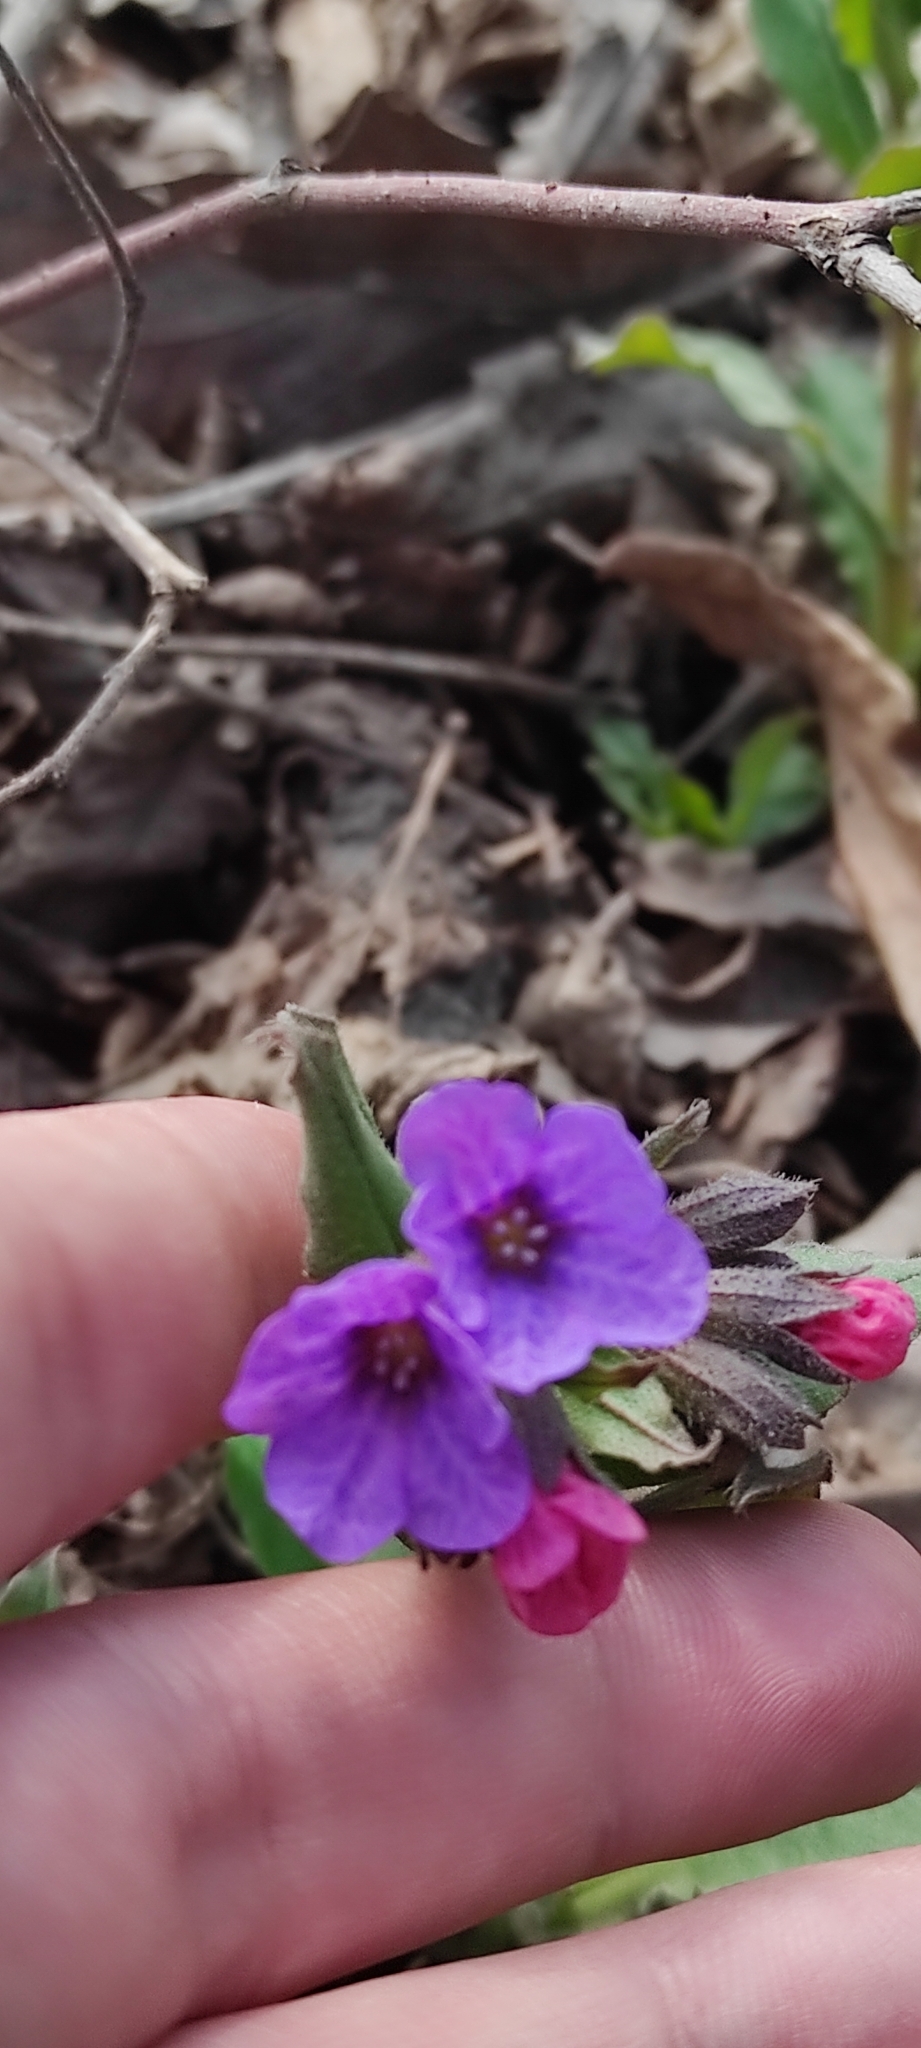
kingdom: Plantae
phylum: Tracheophyta
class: Magnoliopsida
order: Boraginales
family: Boraginaceae
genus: Pulmonaria
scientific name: Pulmonaria obscura
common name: Suffolk lungwort
